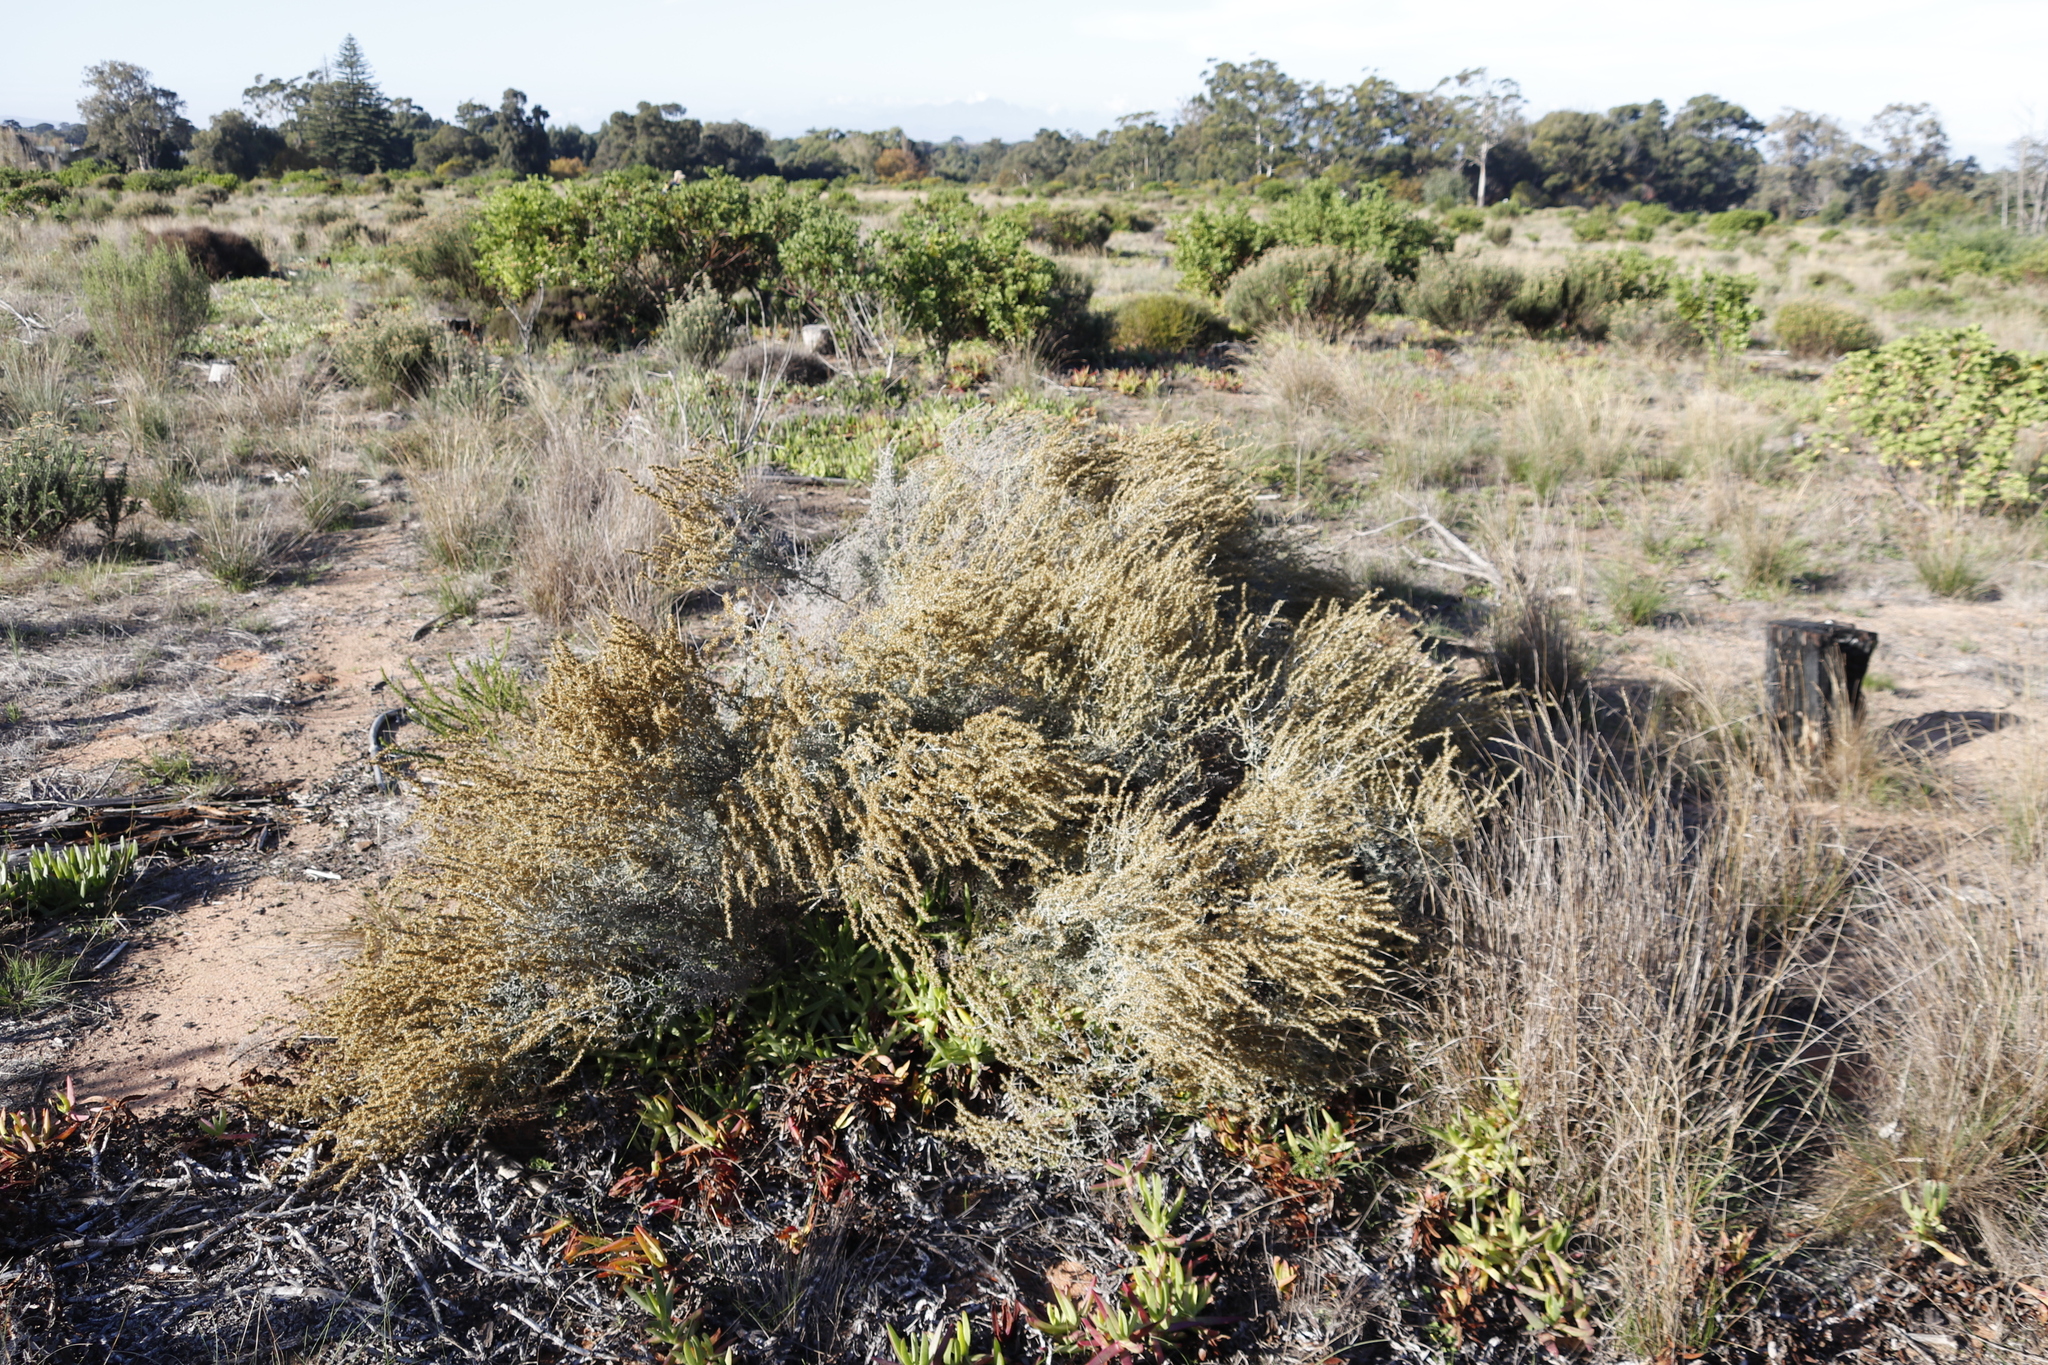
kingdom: Plantae
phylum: Tracheophyta
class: Magnoliopsida
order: Asterales
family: Asteraceae
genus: Seriphium
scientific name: Seriphium plumosum
